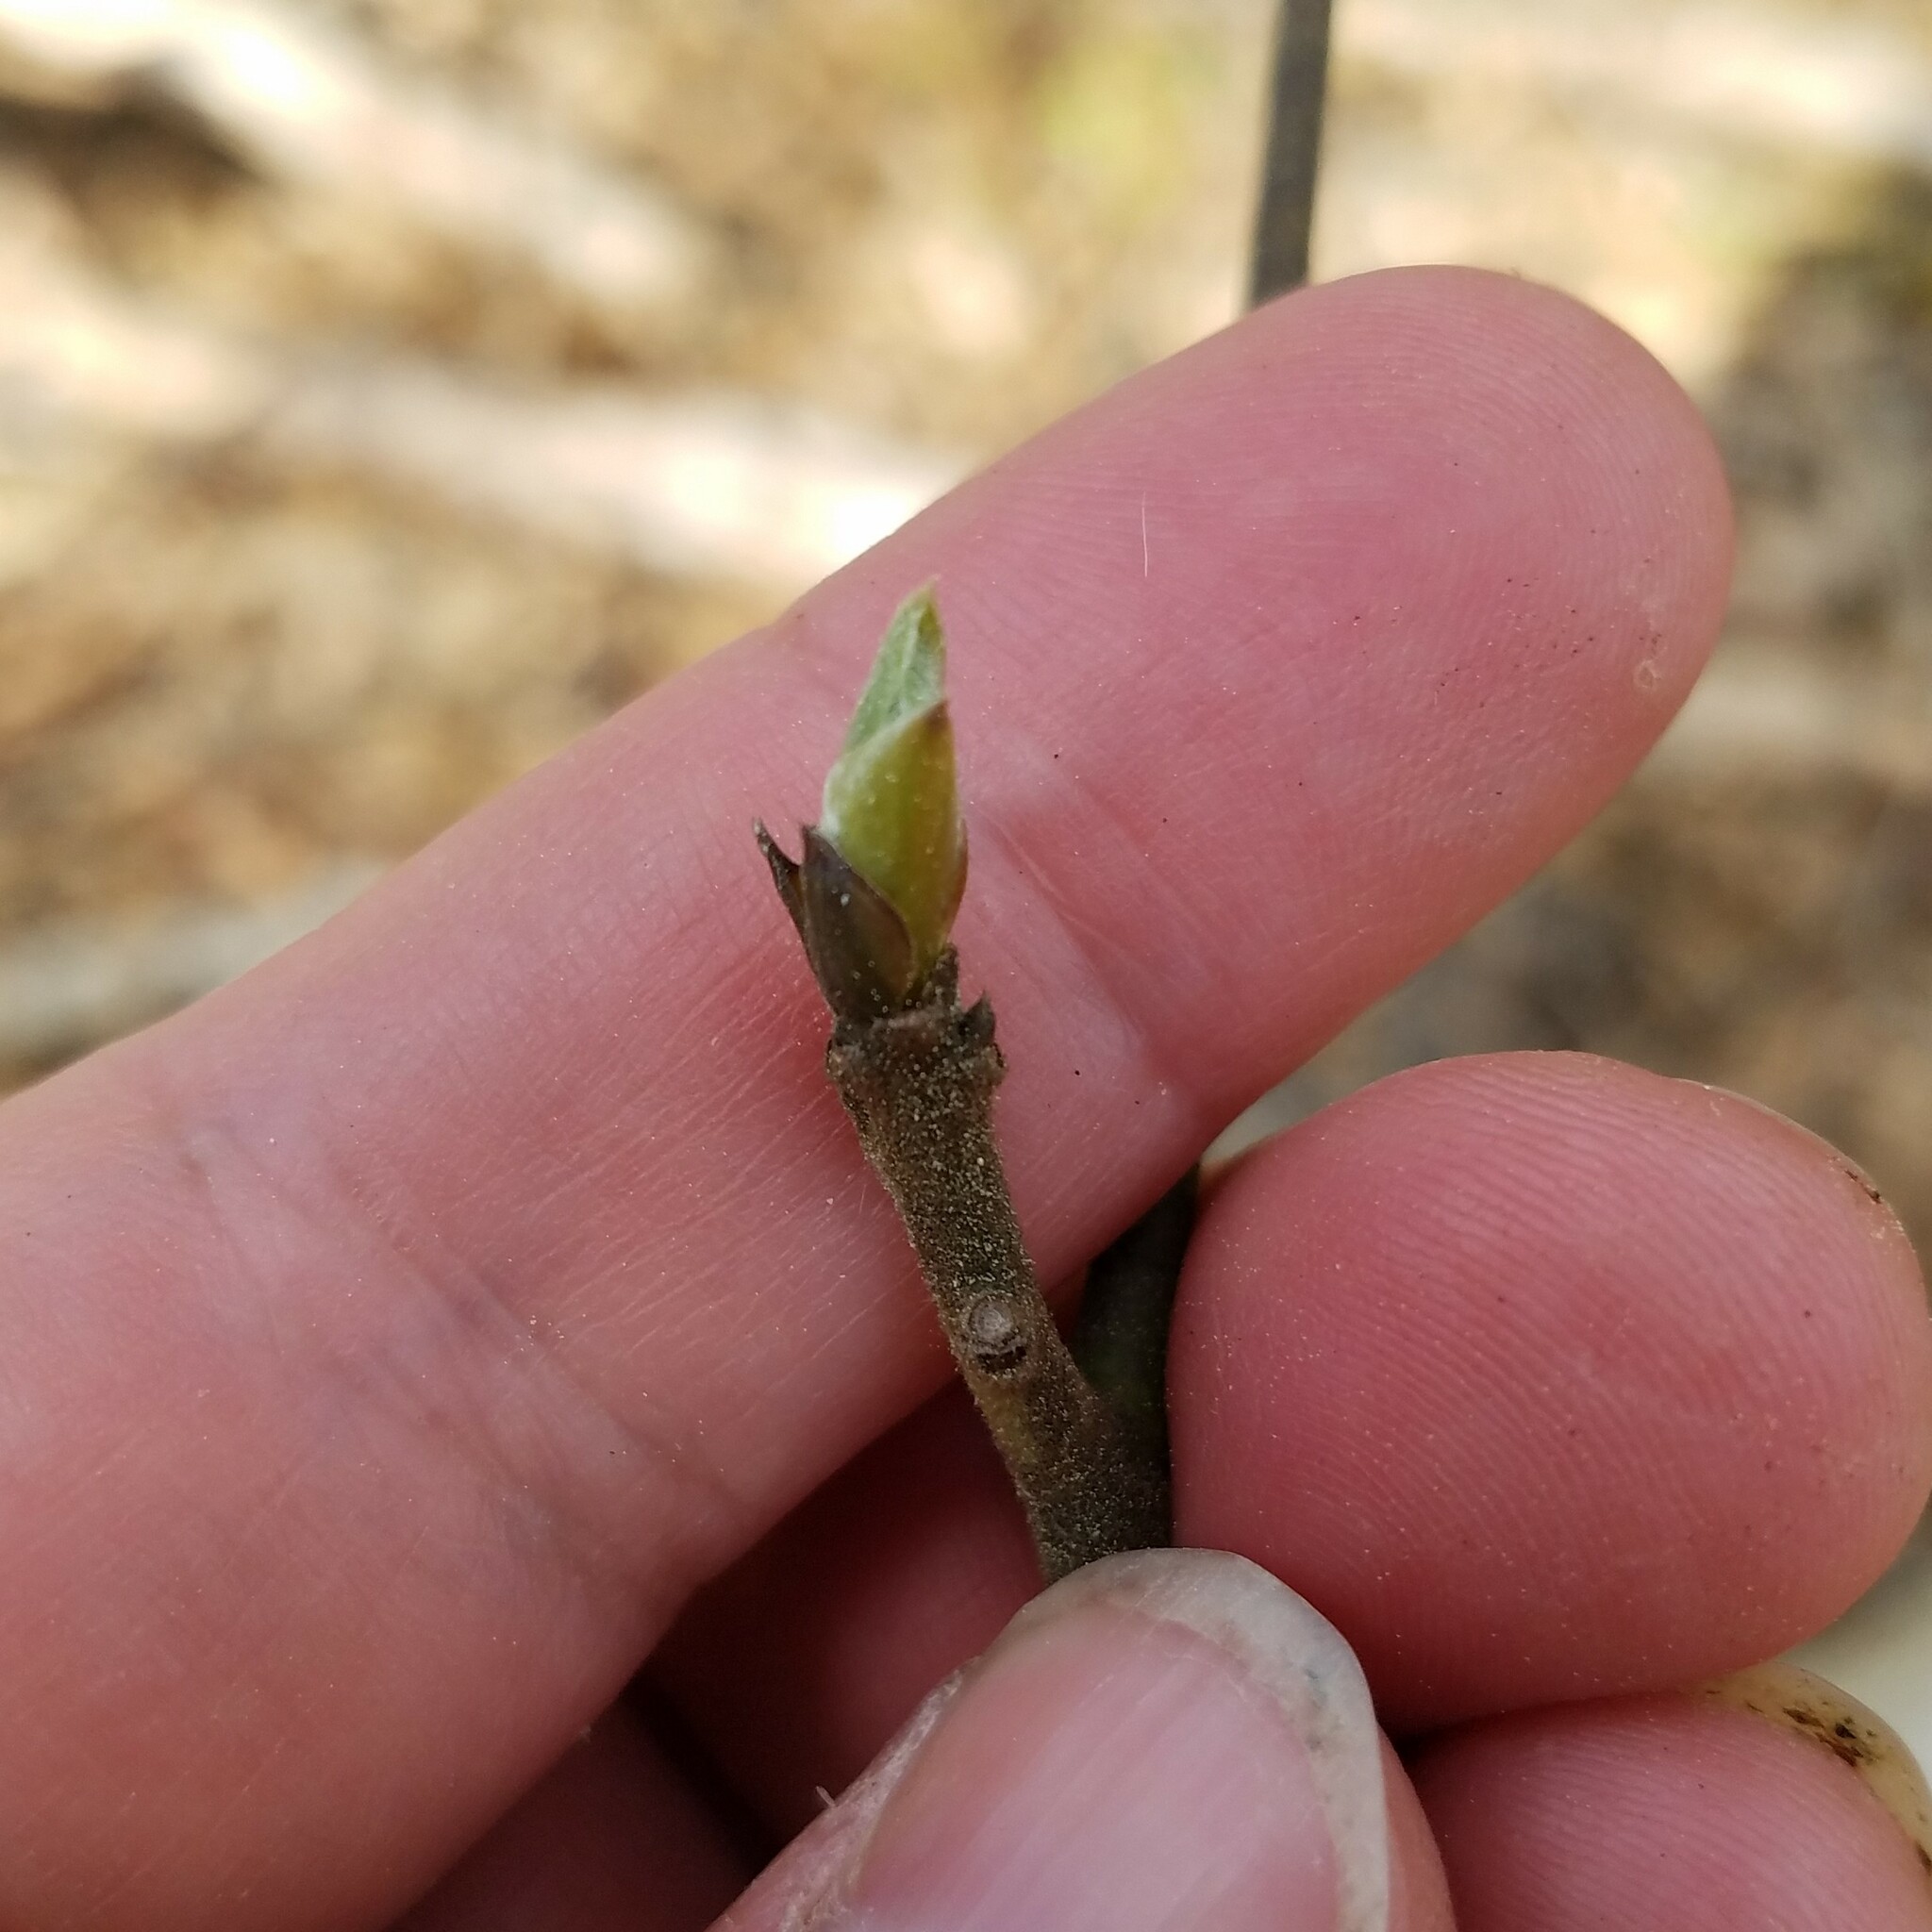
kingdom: Plantae
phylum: Tracheophyta
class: Magnoliopsida
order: Laurales
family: Lauraceae
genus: Sassafras
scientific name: Sassafras albidum
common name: Sassafras
